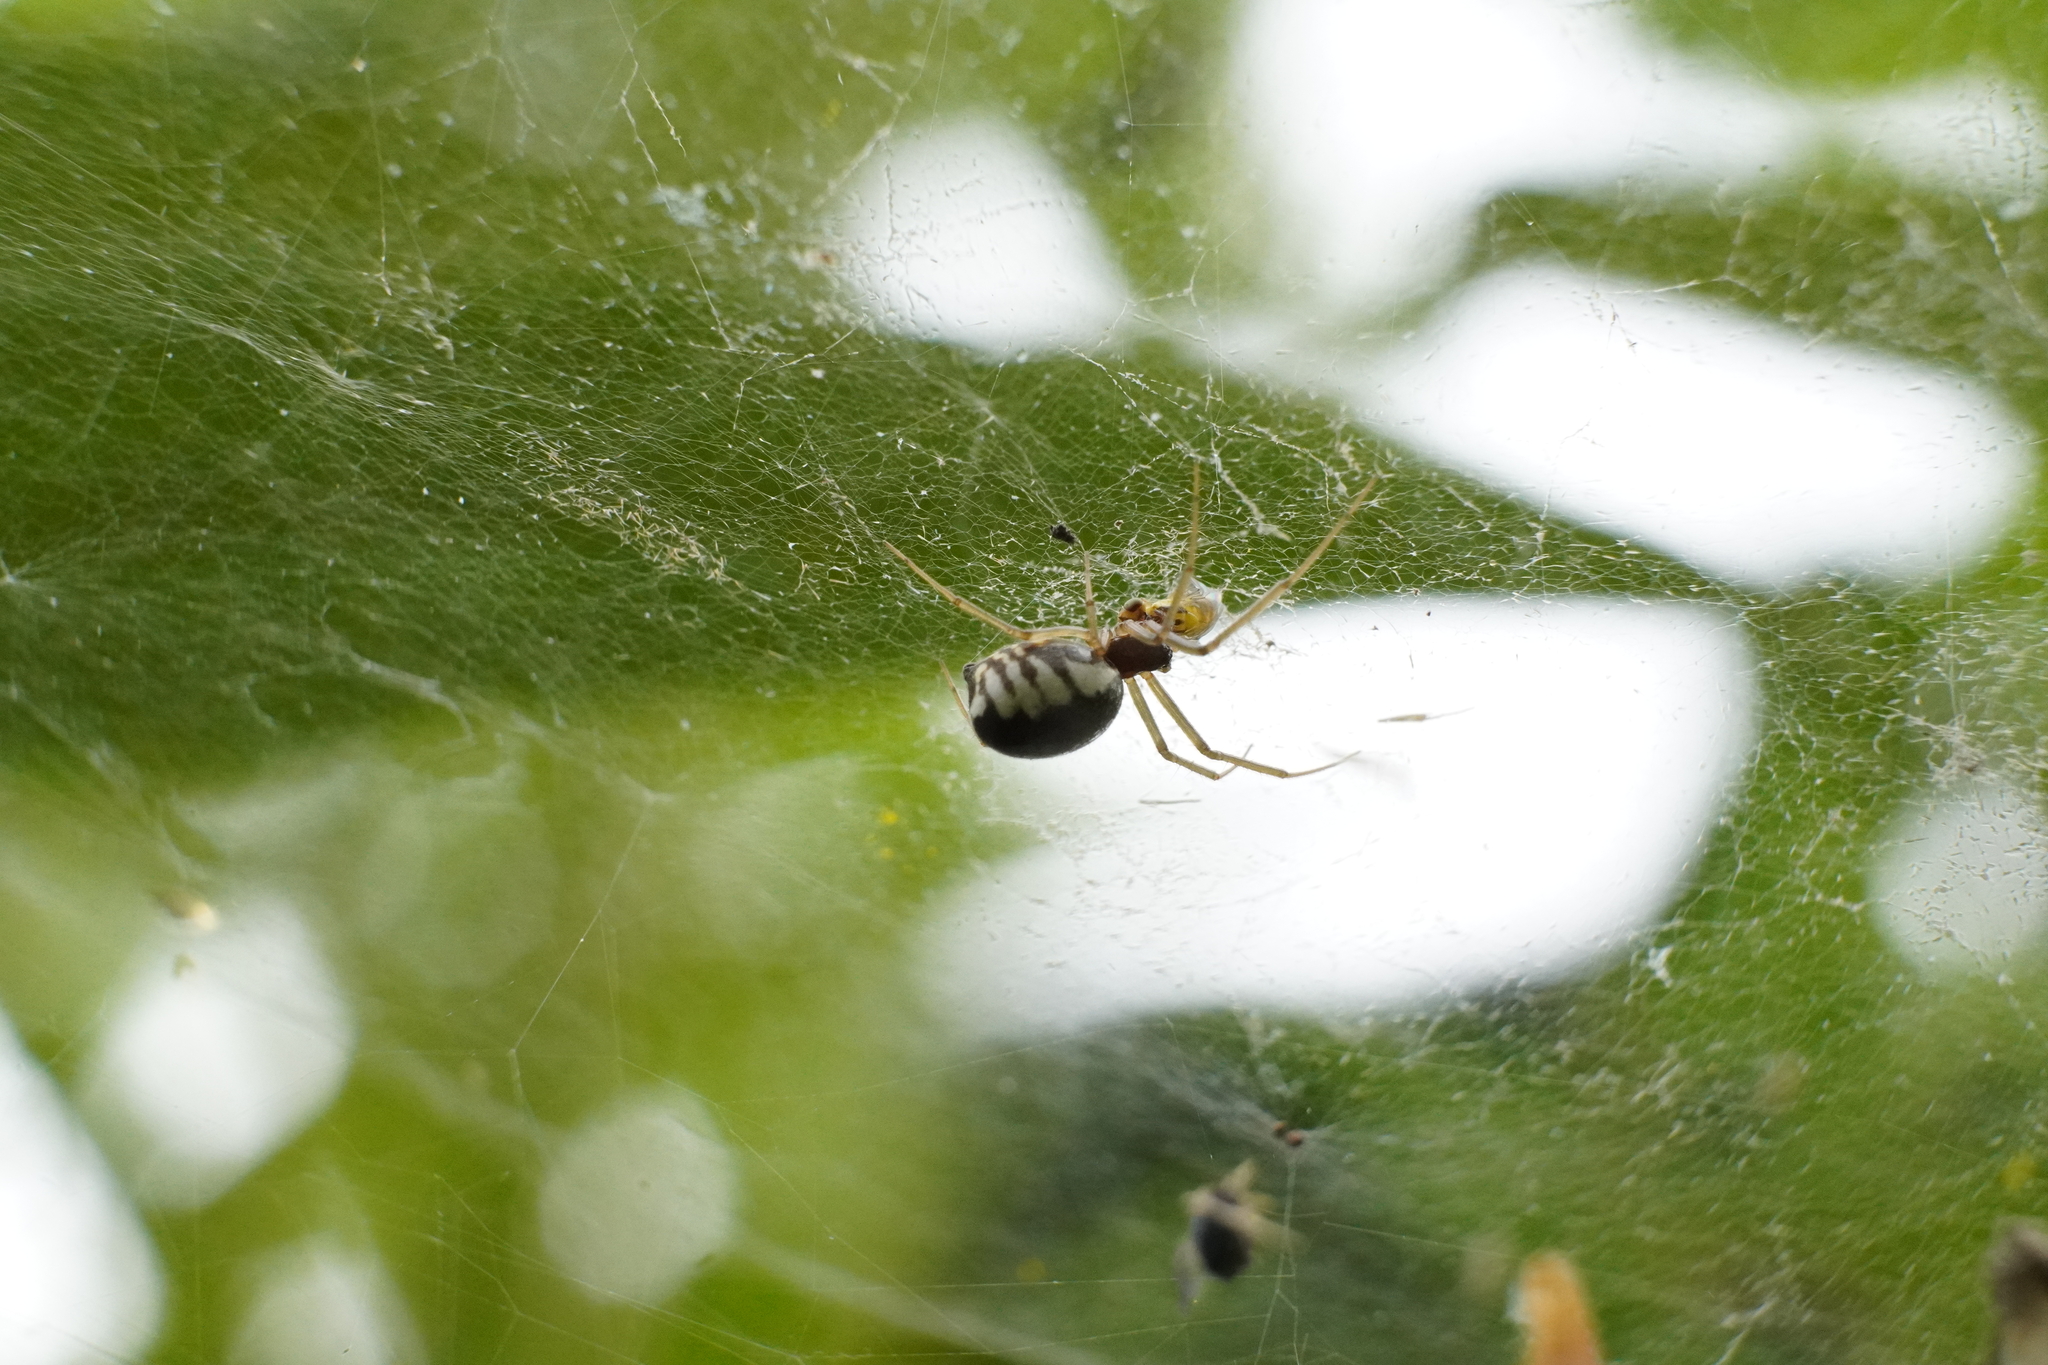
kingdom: Animalia
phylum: Arthropoda
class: Arachnida
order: Araneae
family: Linyphiidae
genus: Frontinella
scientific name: Frontinella pyramitela
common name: Bowl-and-doily spider
